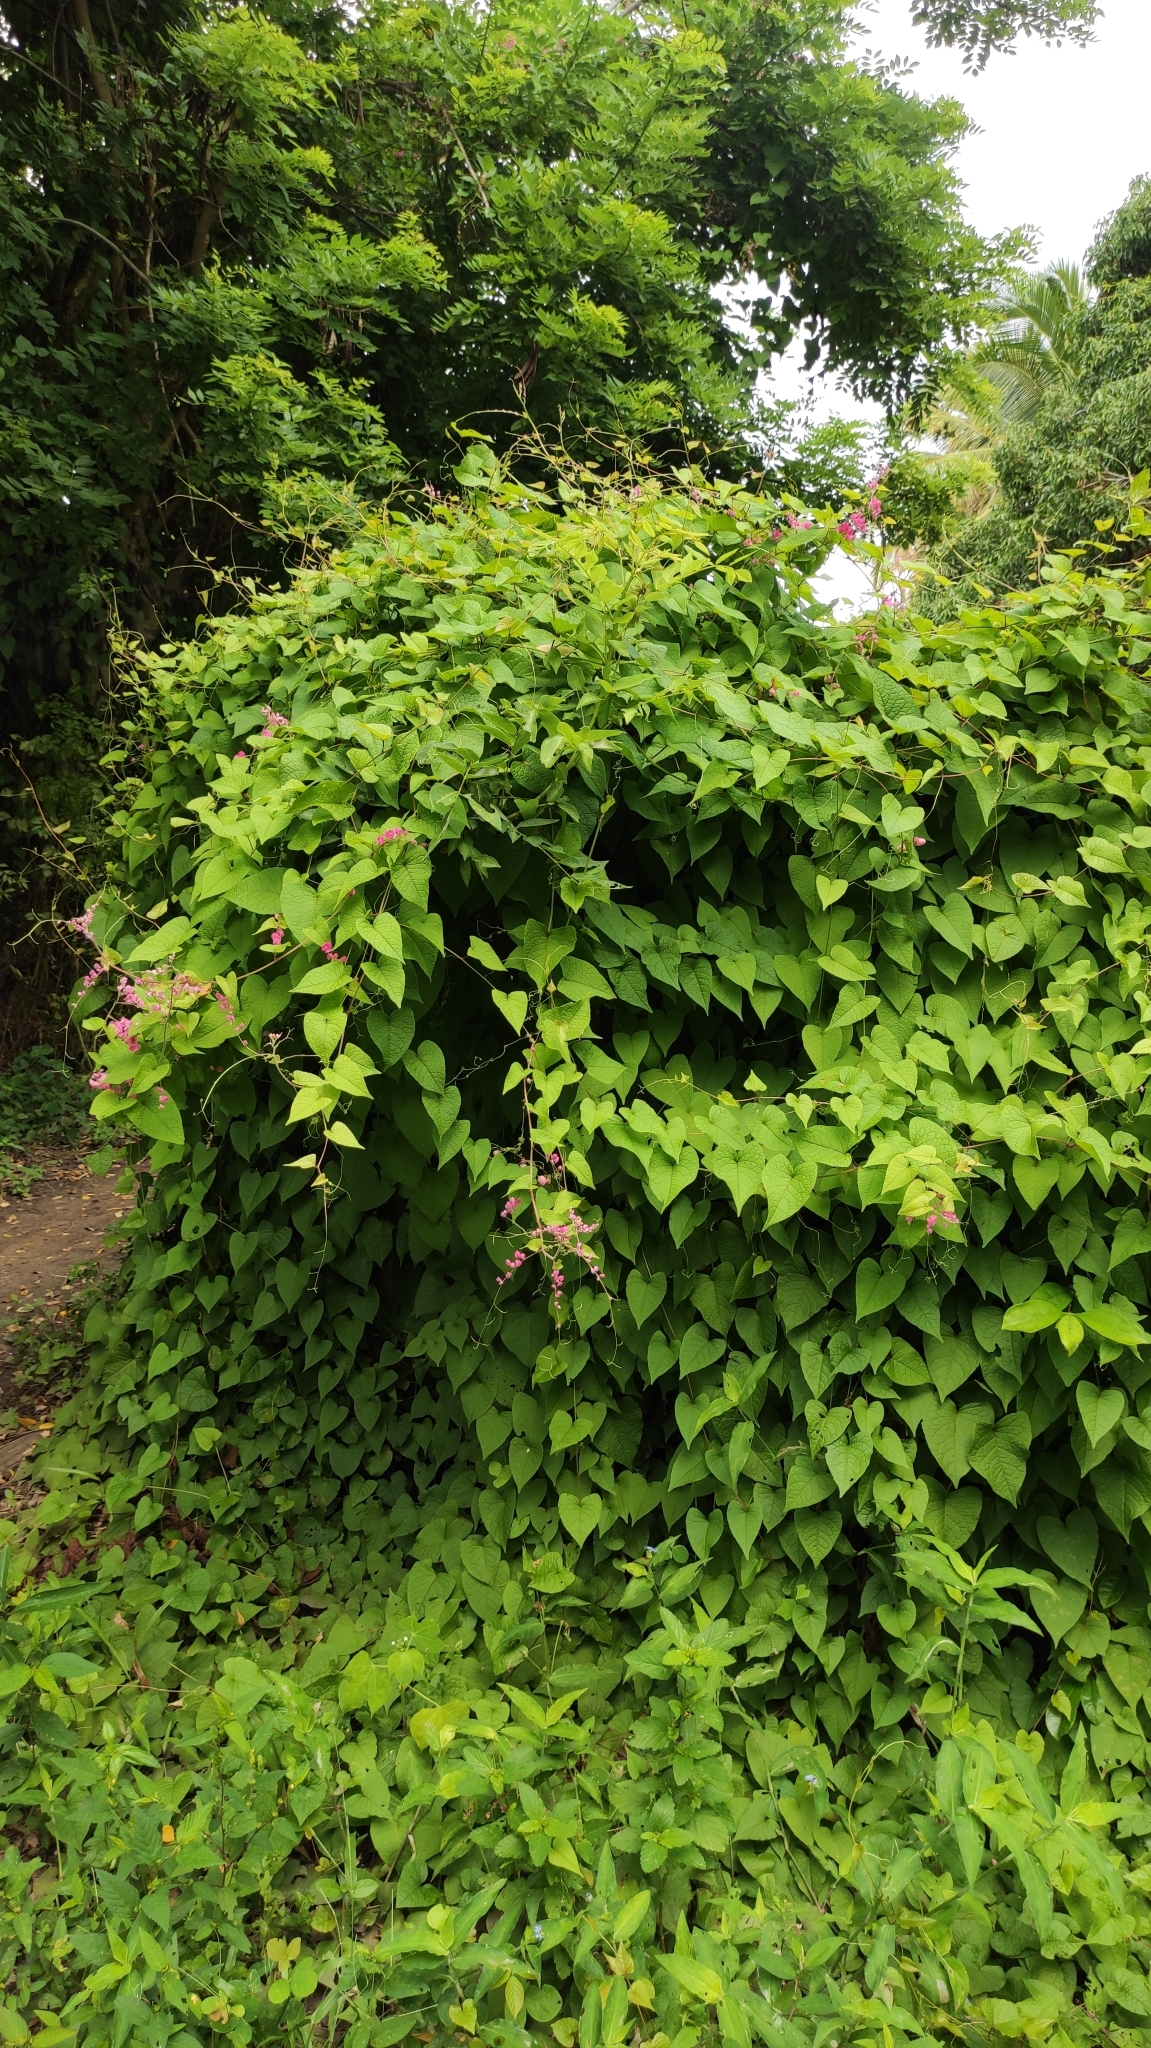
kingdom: Plantae
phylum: Tracheophyta
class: Magnoliopsida
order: Caryophyllales
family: Polygonaceae
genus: Antigonon
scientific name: Antigonon leptopus
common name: Coral vine
